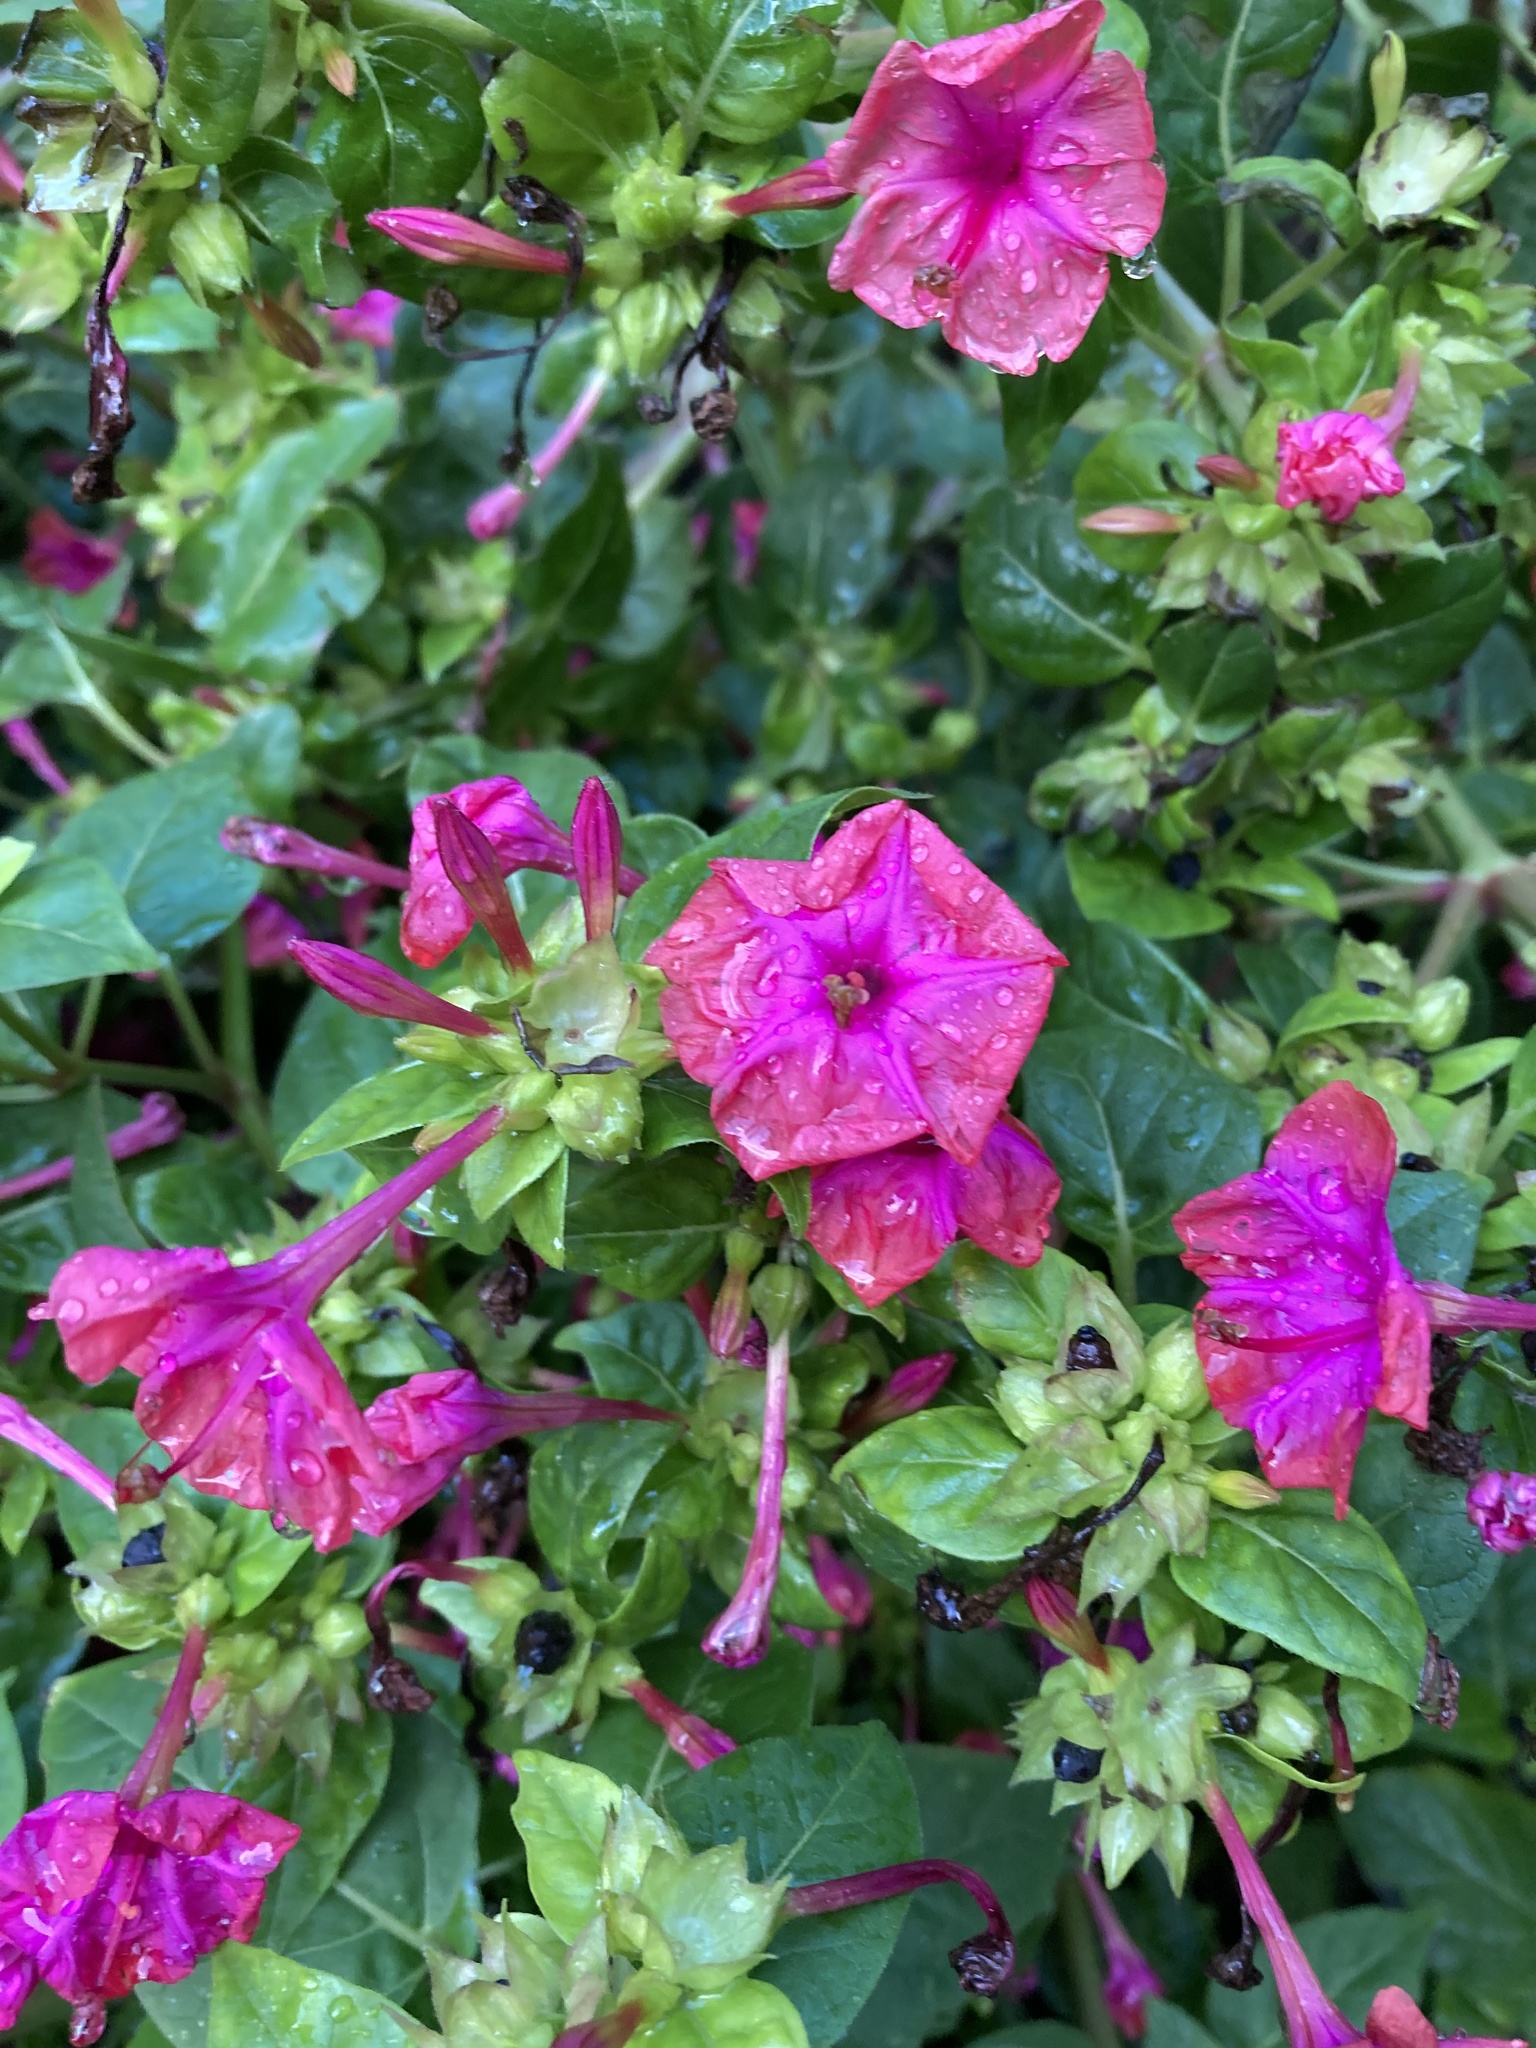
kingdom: Plantae
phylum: Tracheophyta
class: Magnoliopsida
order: Caryophyllales
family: Nyctaginaceae
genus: Mirabilis
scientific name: Mirabilis jalapa
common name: Marvel-of-peru
